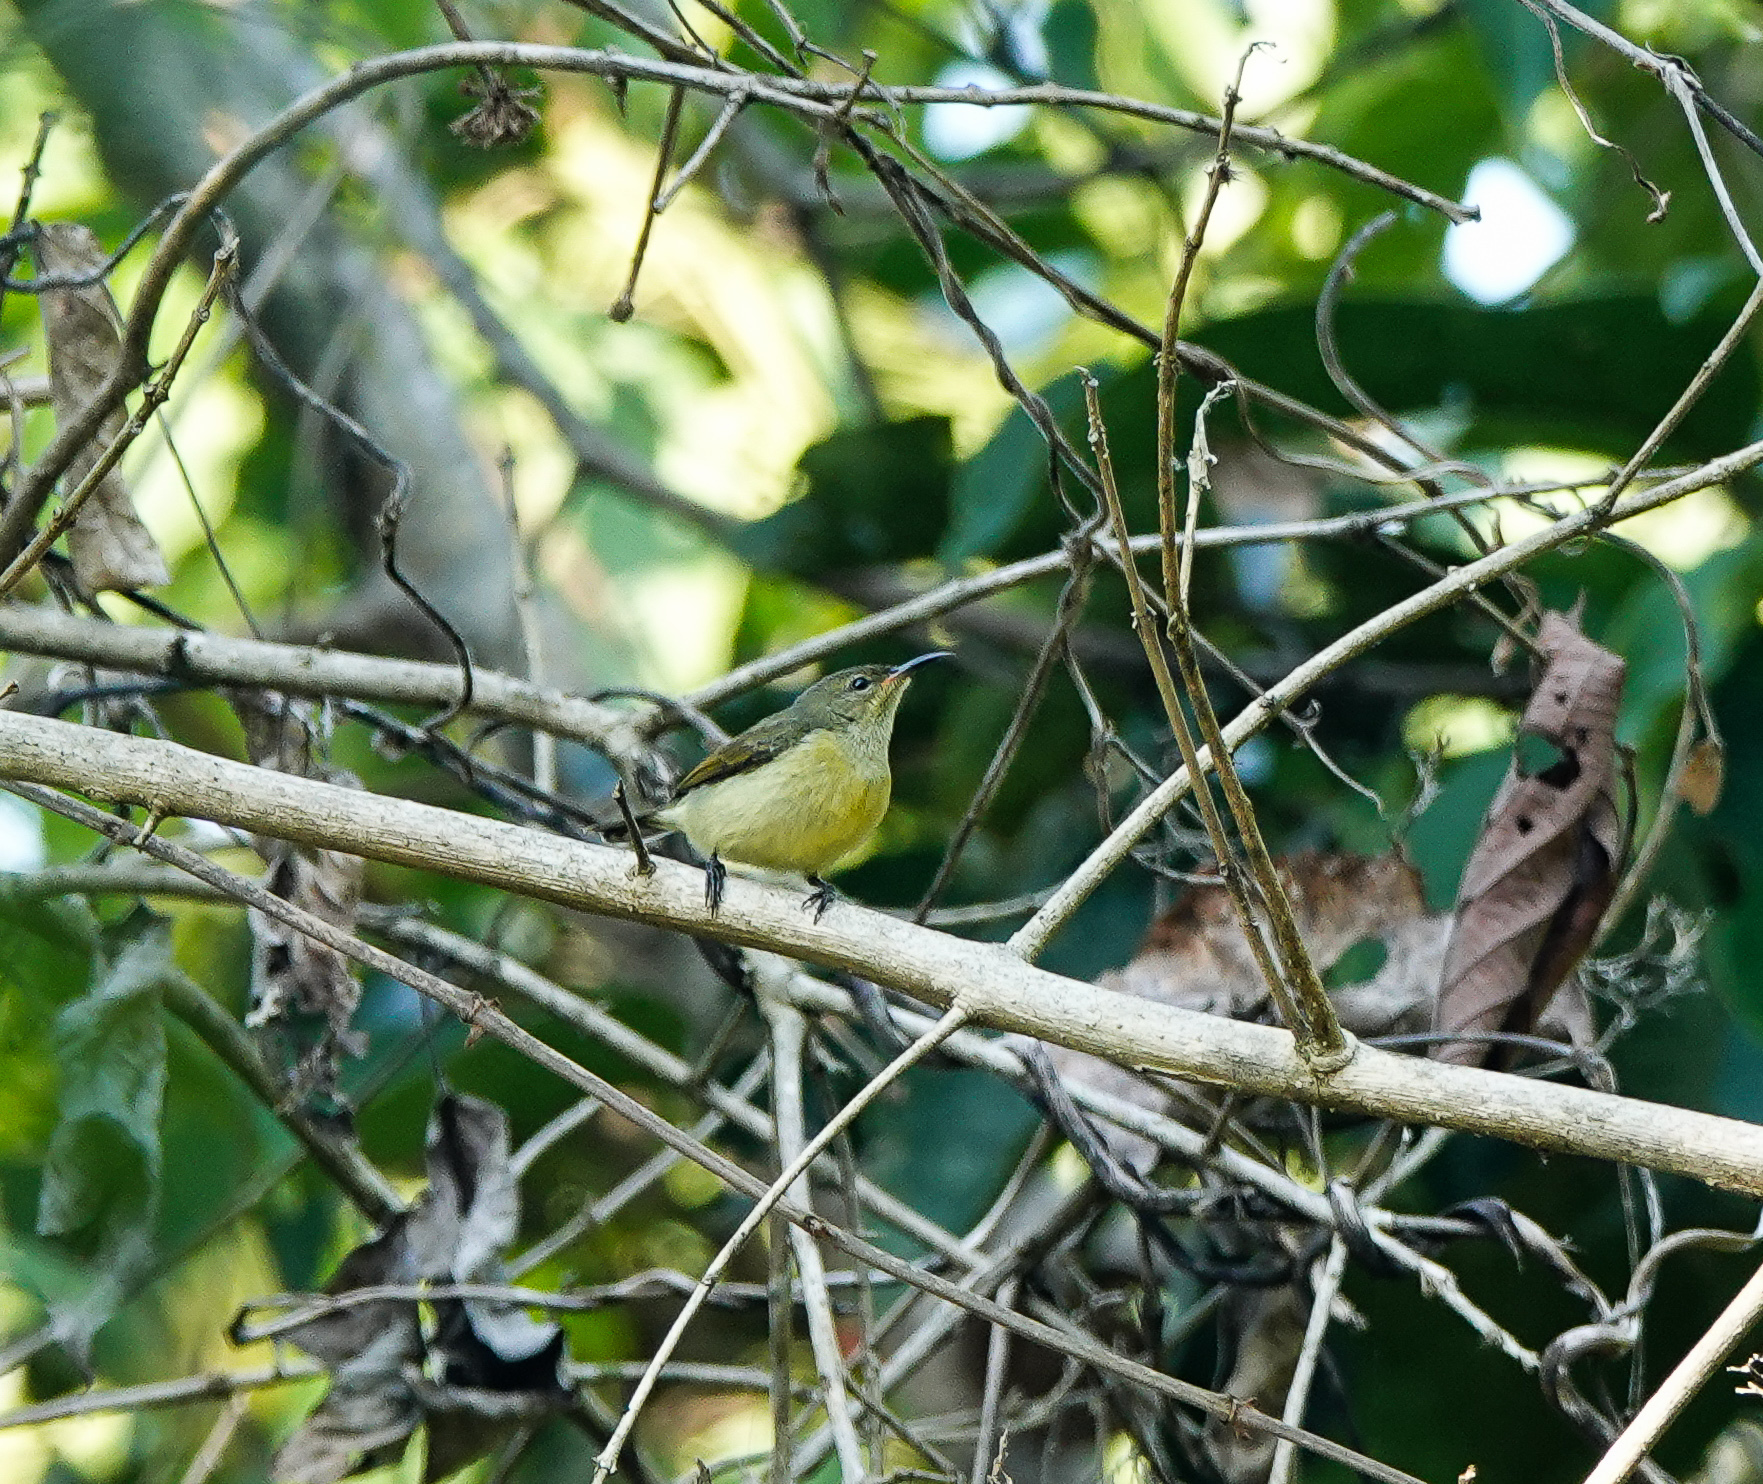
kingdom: Animalia
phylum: Chordata
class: Aves
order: Passeriformes
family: Nectariniidae
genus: Leptocoma
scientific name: Leptocoma brasiliana
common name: Van hasselt's sunbird
